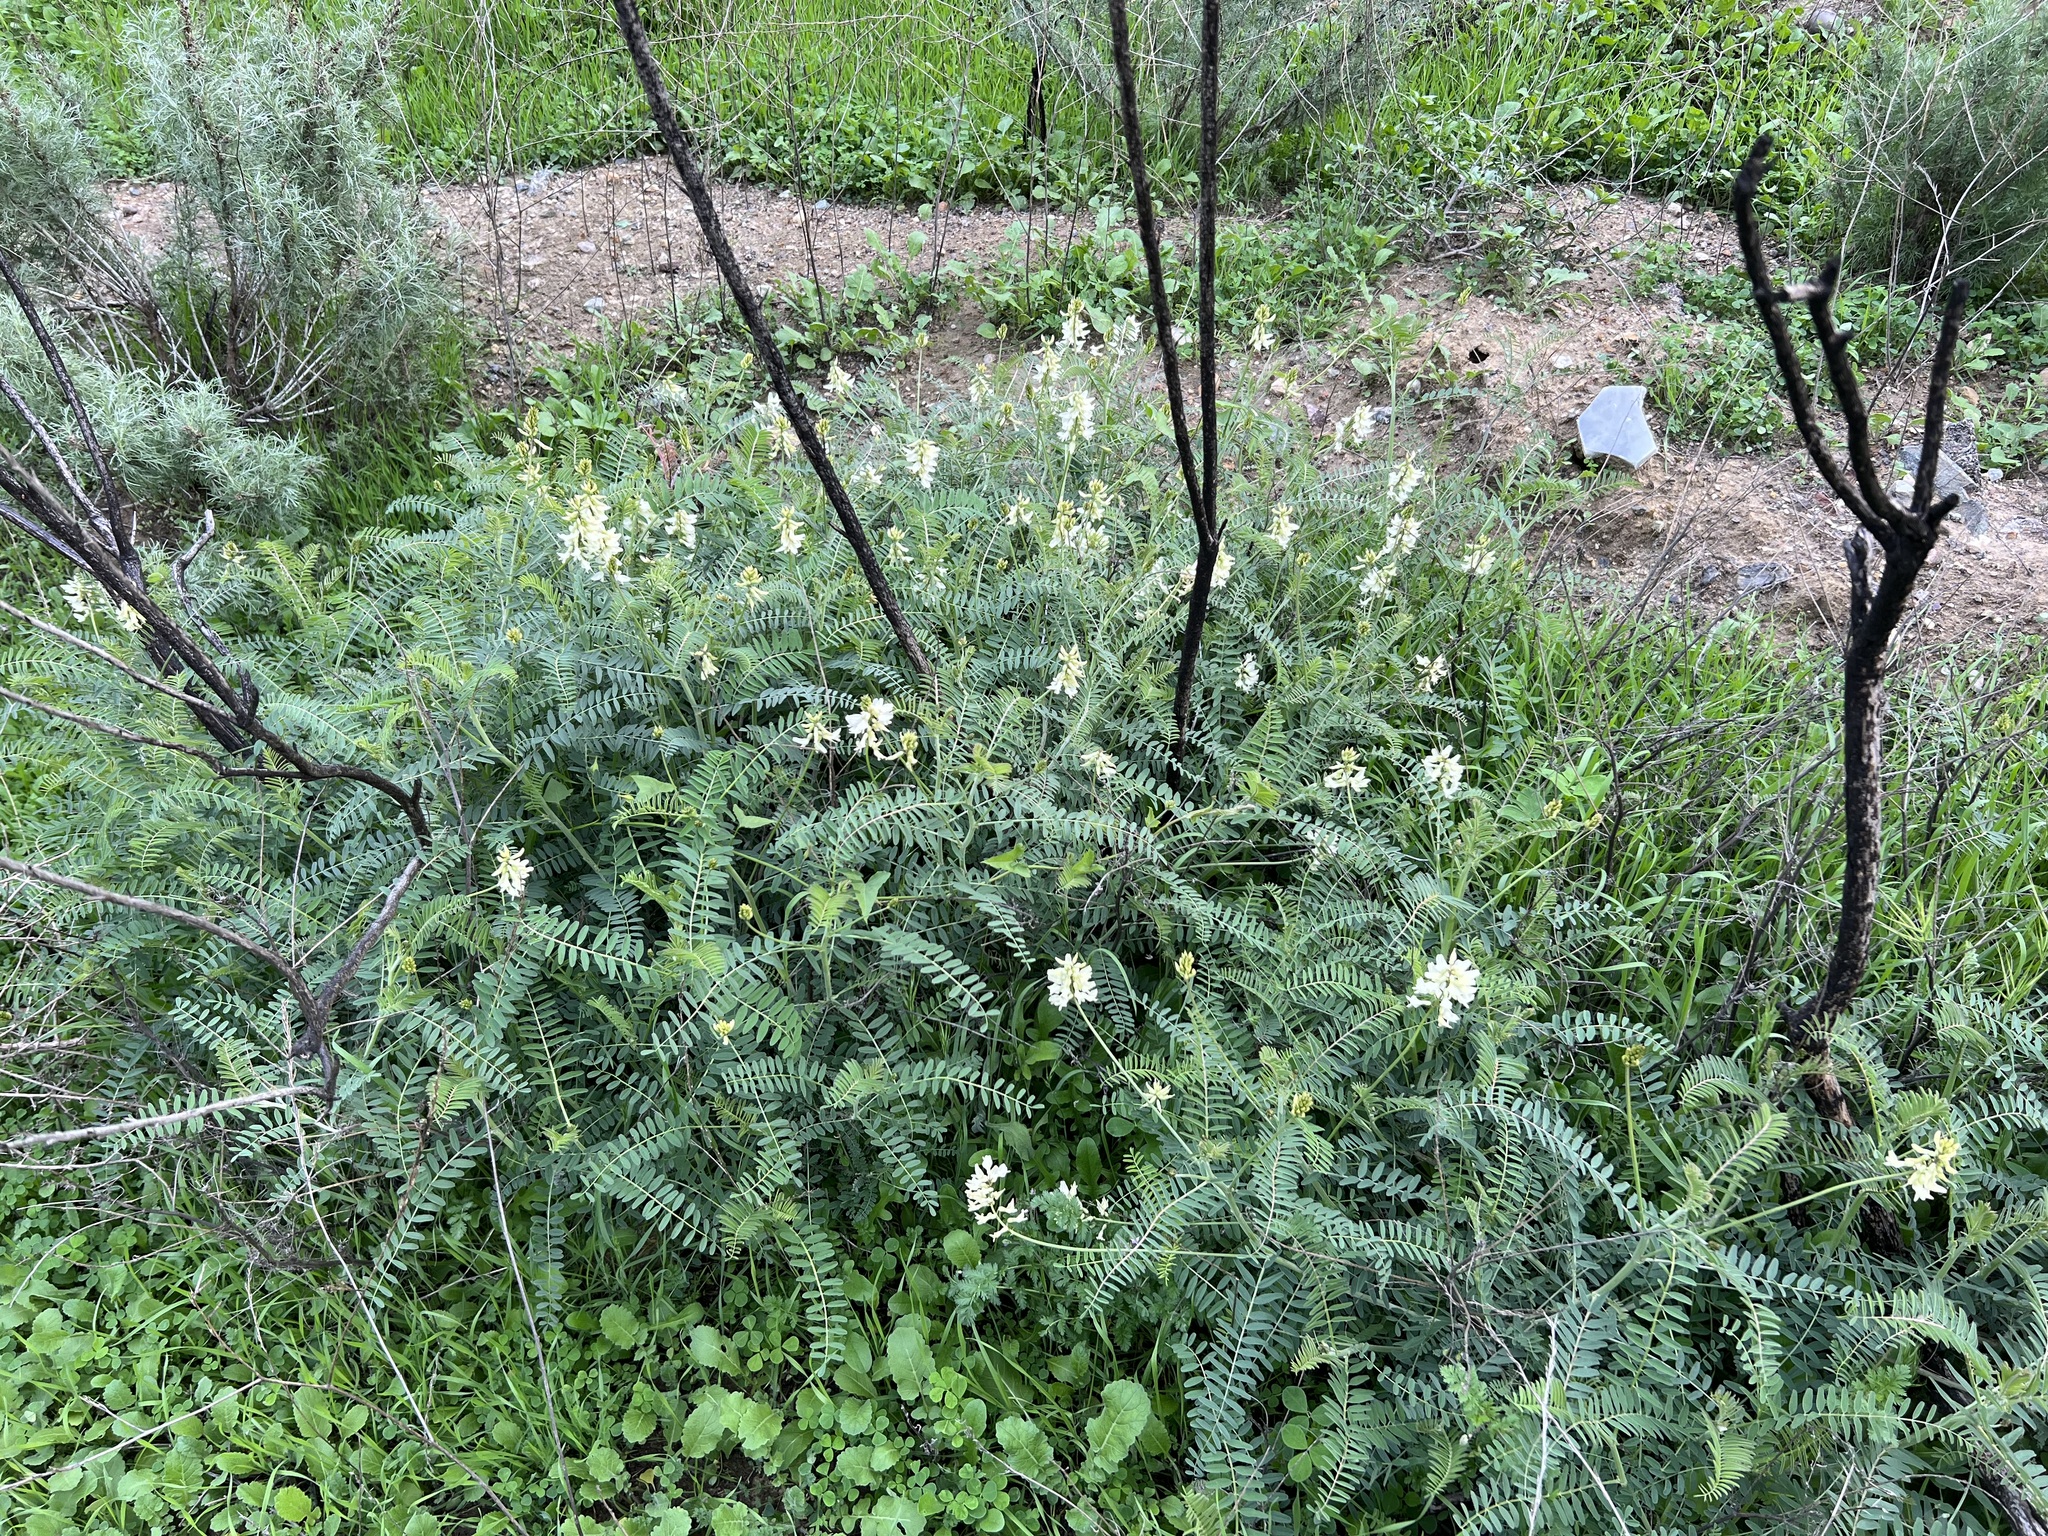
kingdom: Plantae
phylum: Tracheophyta
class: Magnoliopsida
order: Fabales
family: Fabaceae
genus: Astragalus
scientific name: Astragalus trichopodus
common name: Santa barbara milk-vetch
